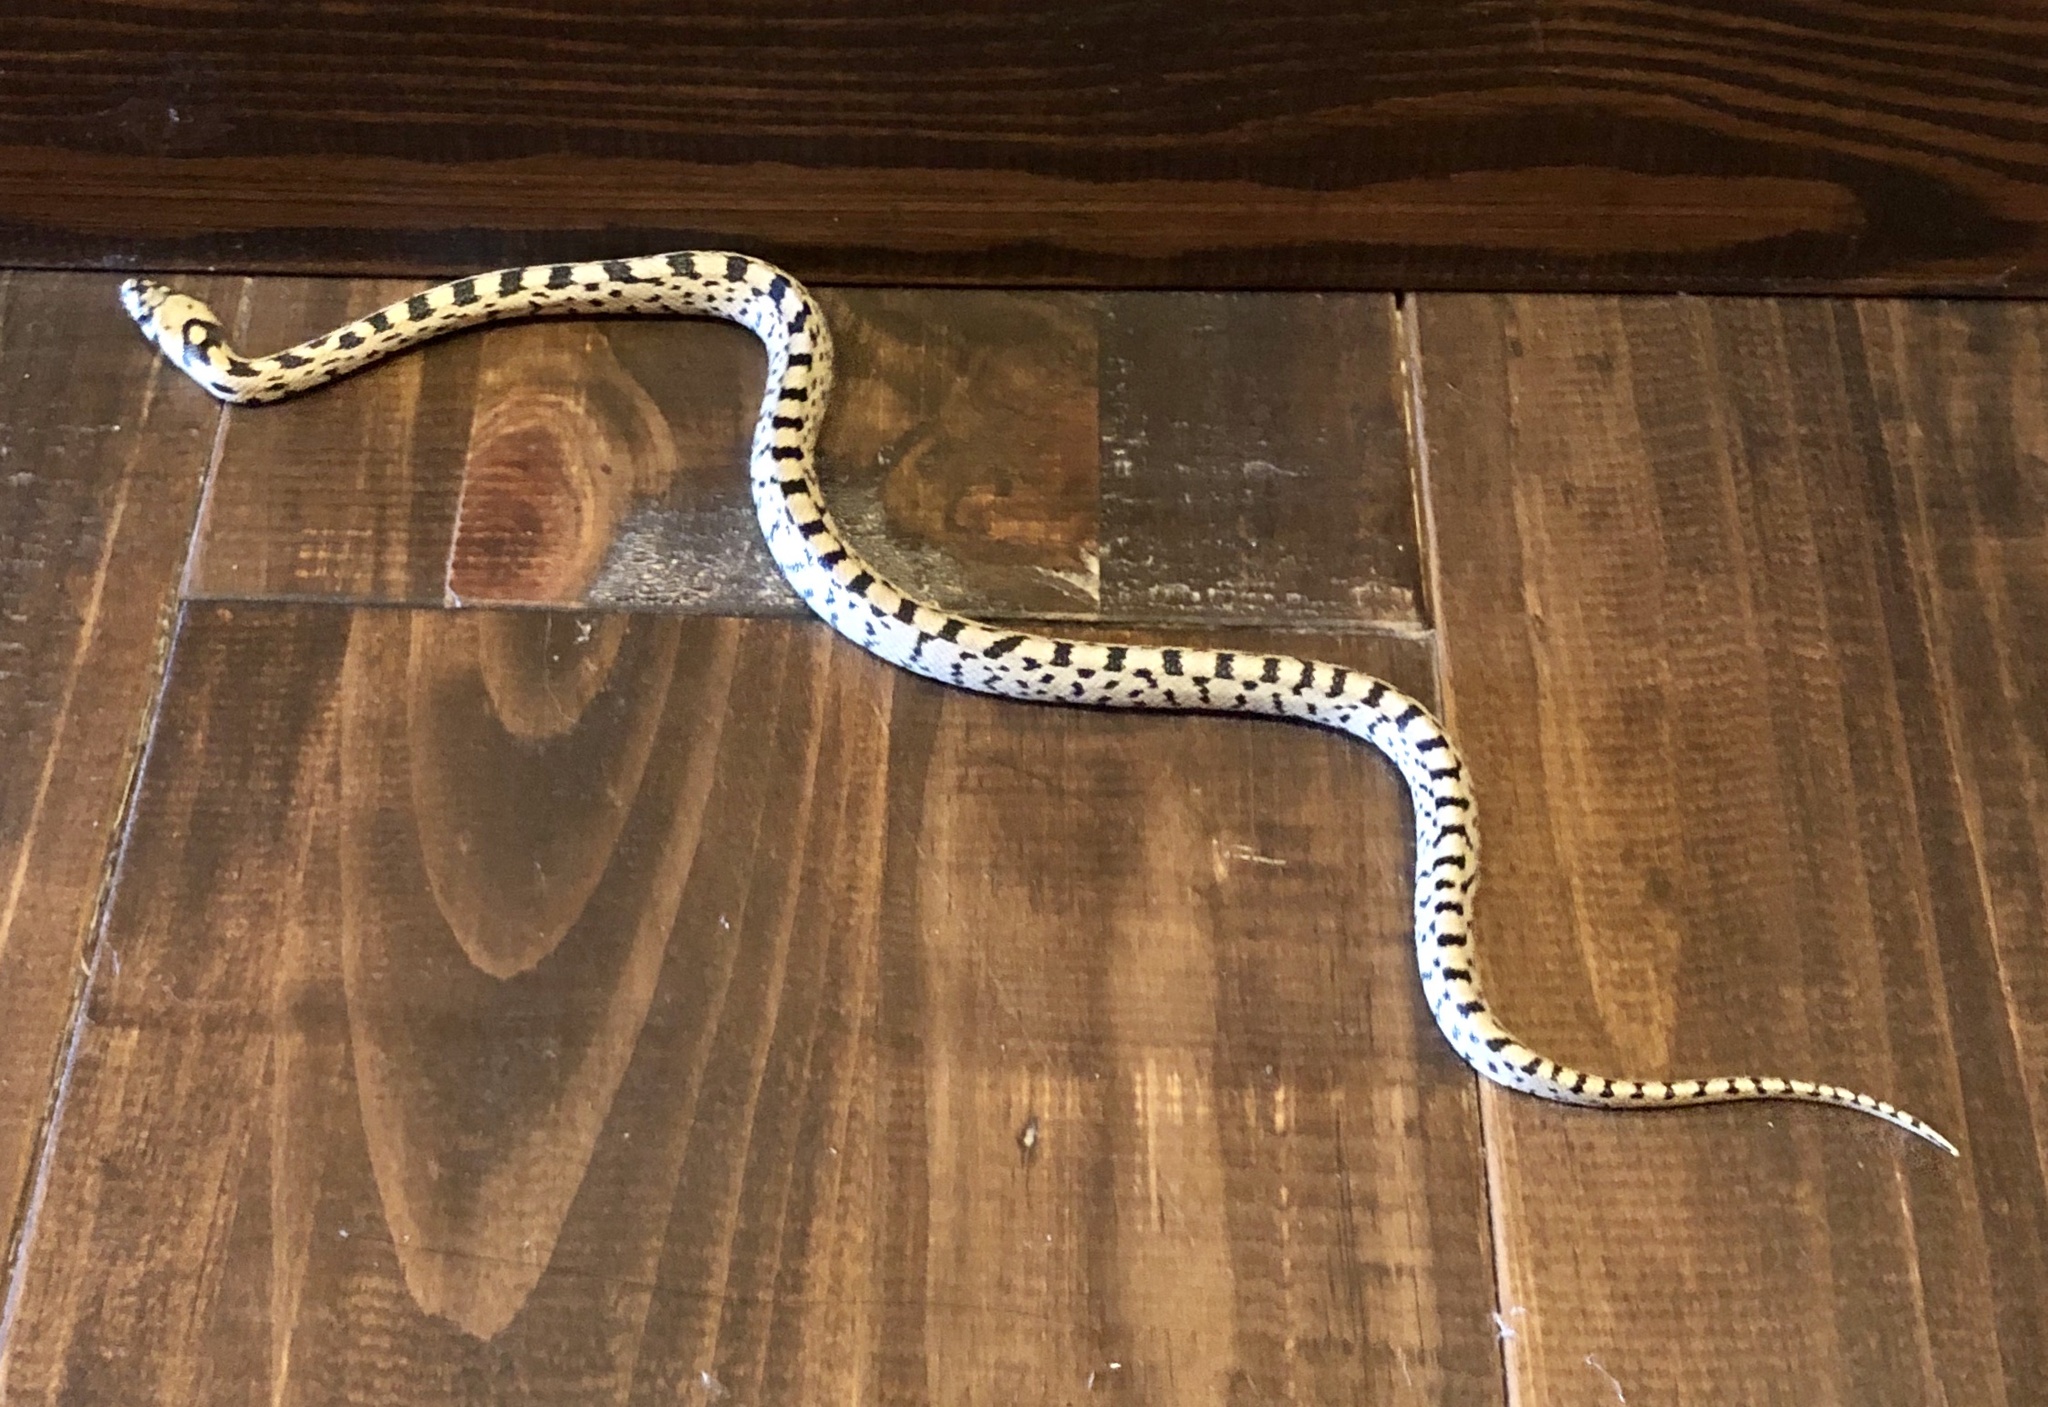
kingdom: Animalia
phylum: Chordata
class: Squamata
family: Colubridae
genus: Zamenis
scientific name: Zamenis scalaris
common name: Ladder snakes
